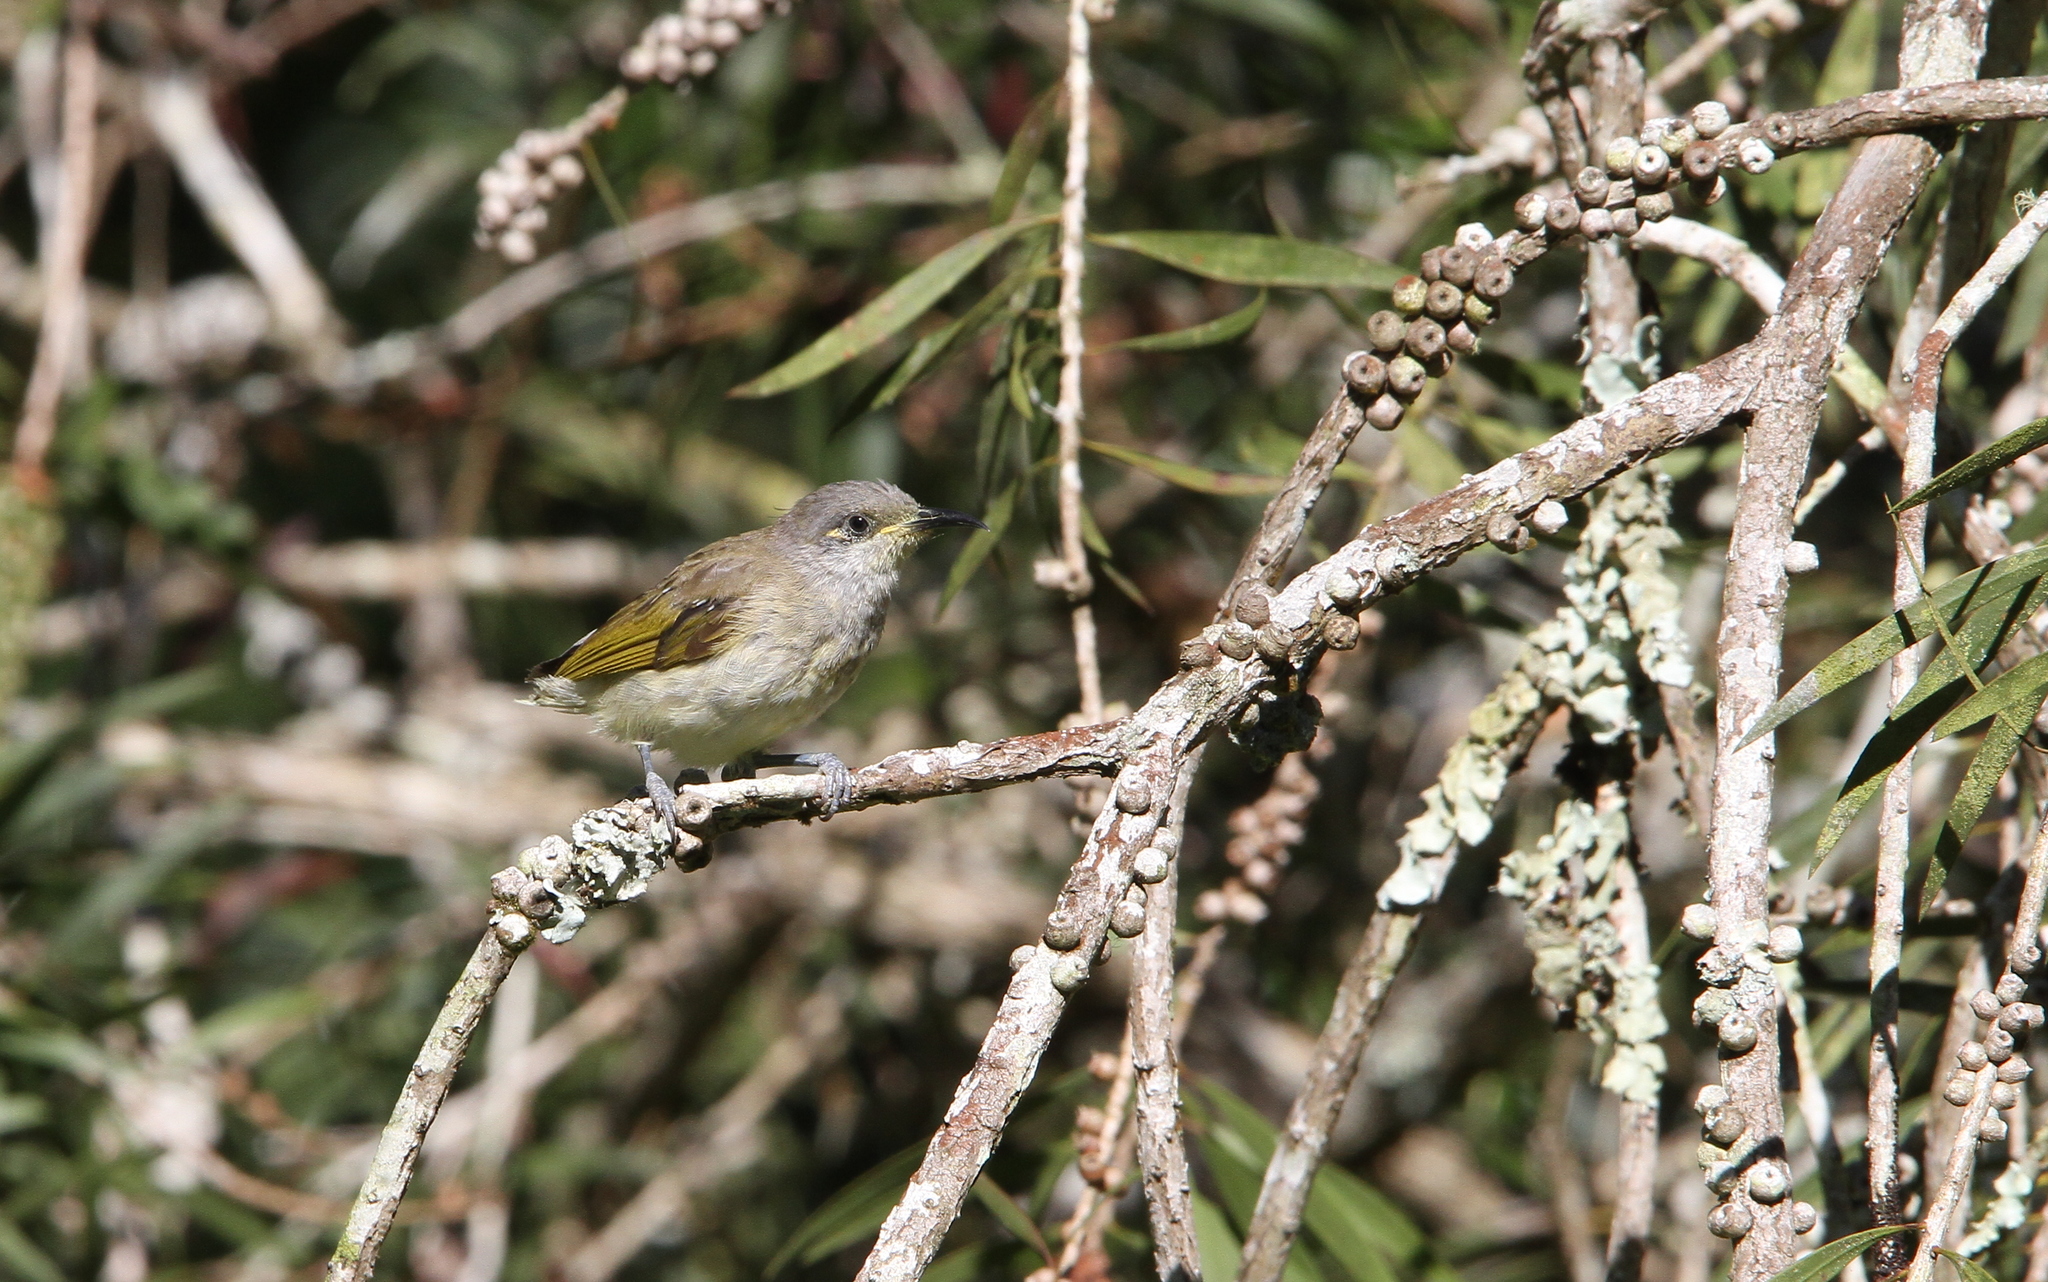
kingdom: Animalia
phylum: Chordata
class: Aves
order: Passeriformes
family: Meliphagidae
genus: Lichmera
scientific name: Lichmera indistincta
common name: Brown honeyeater
